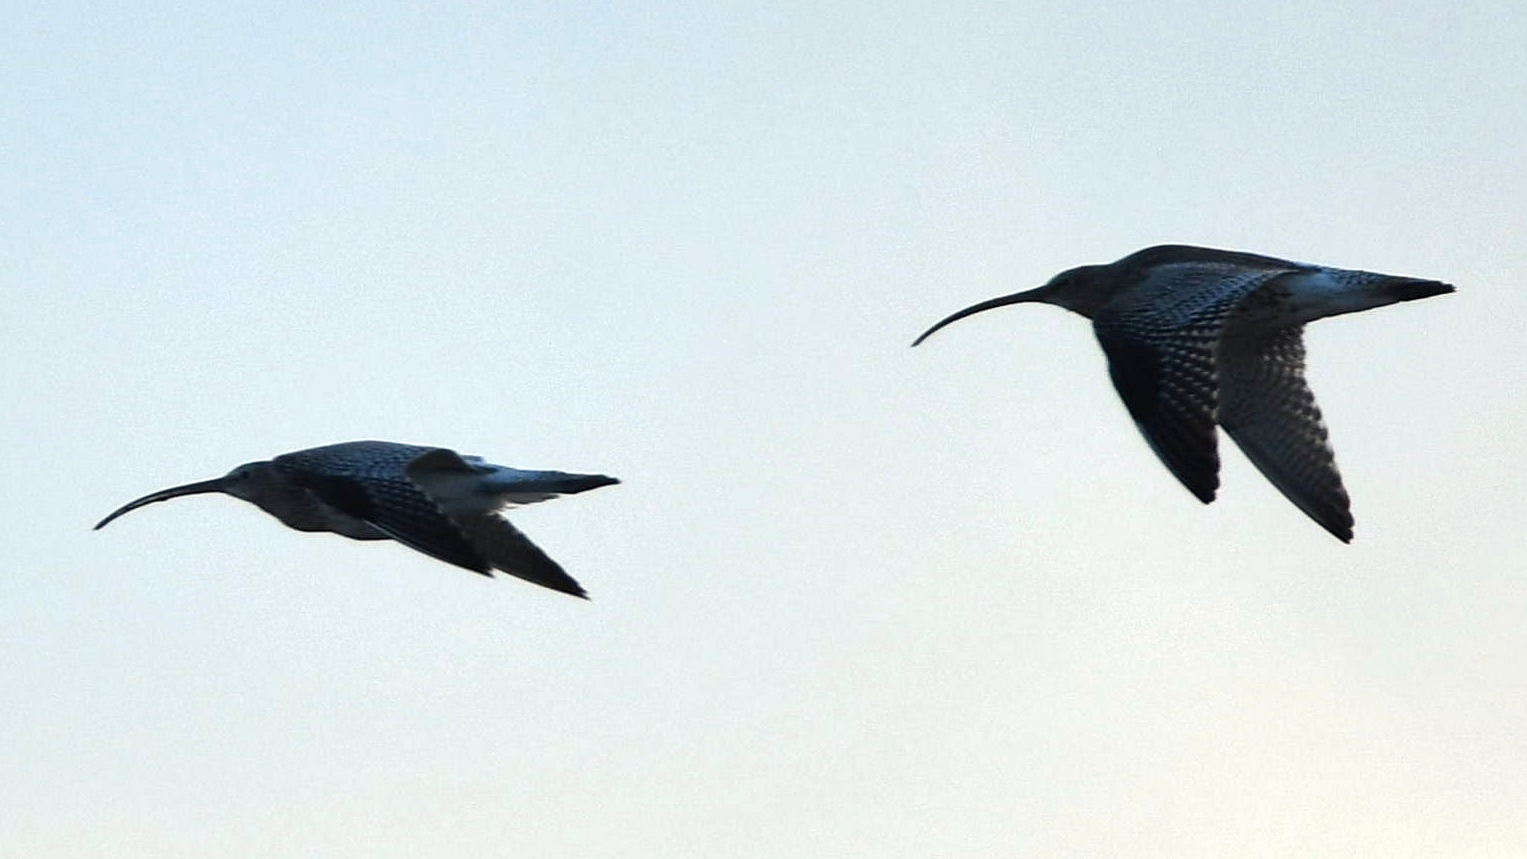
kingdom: Animalia
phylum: Chordata
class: Aves
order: Charadriiformes
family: Scolopacidae
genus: Numenius
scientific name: Numenius arquata
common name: Eurasian curlew
